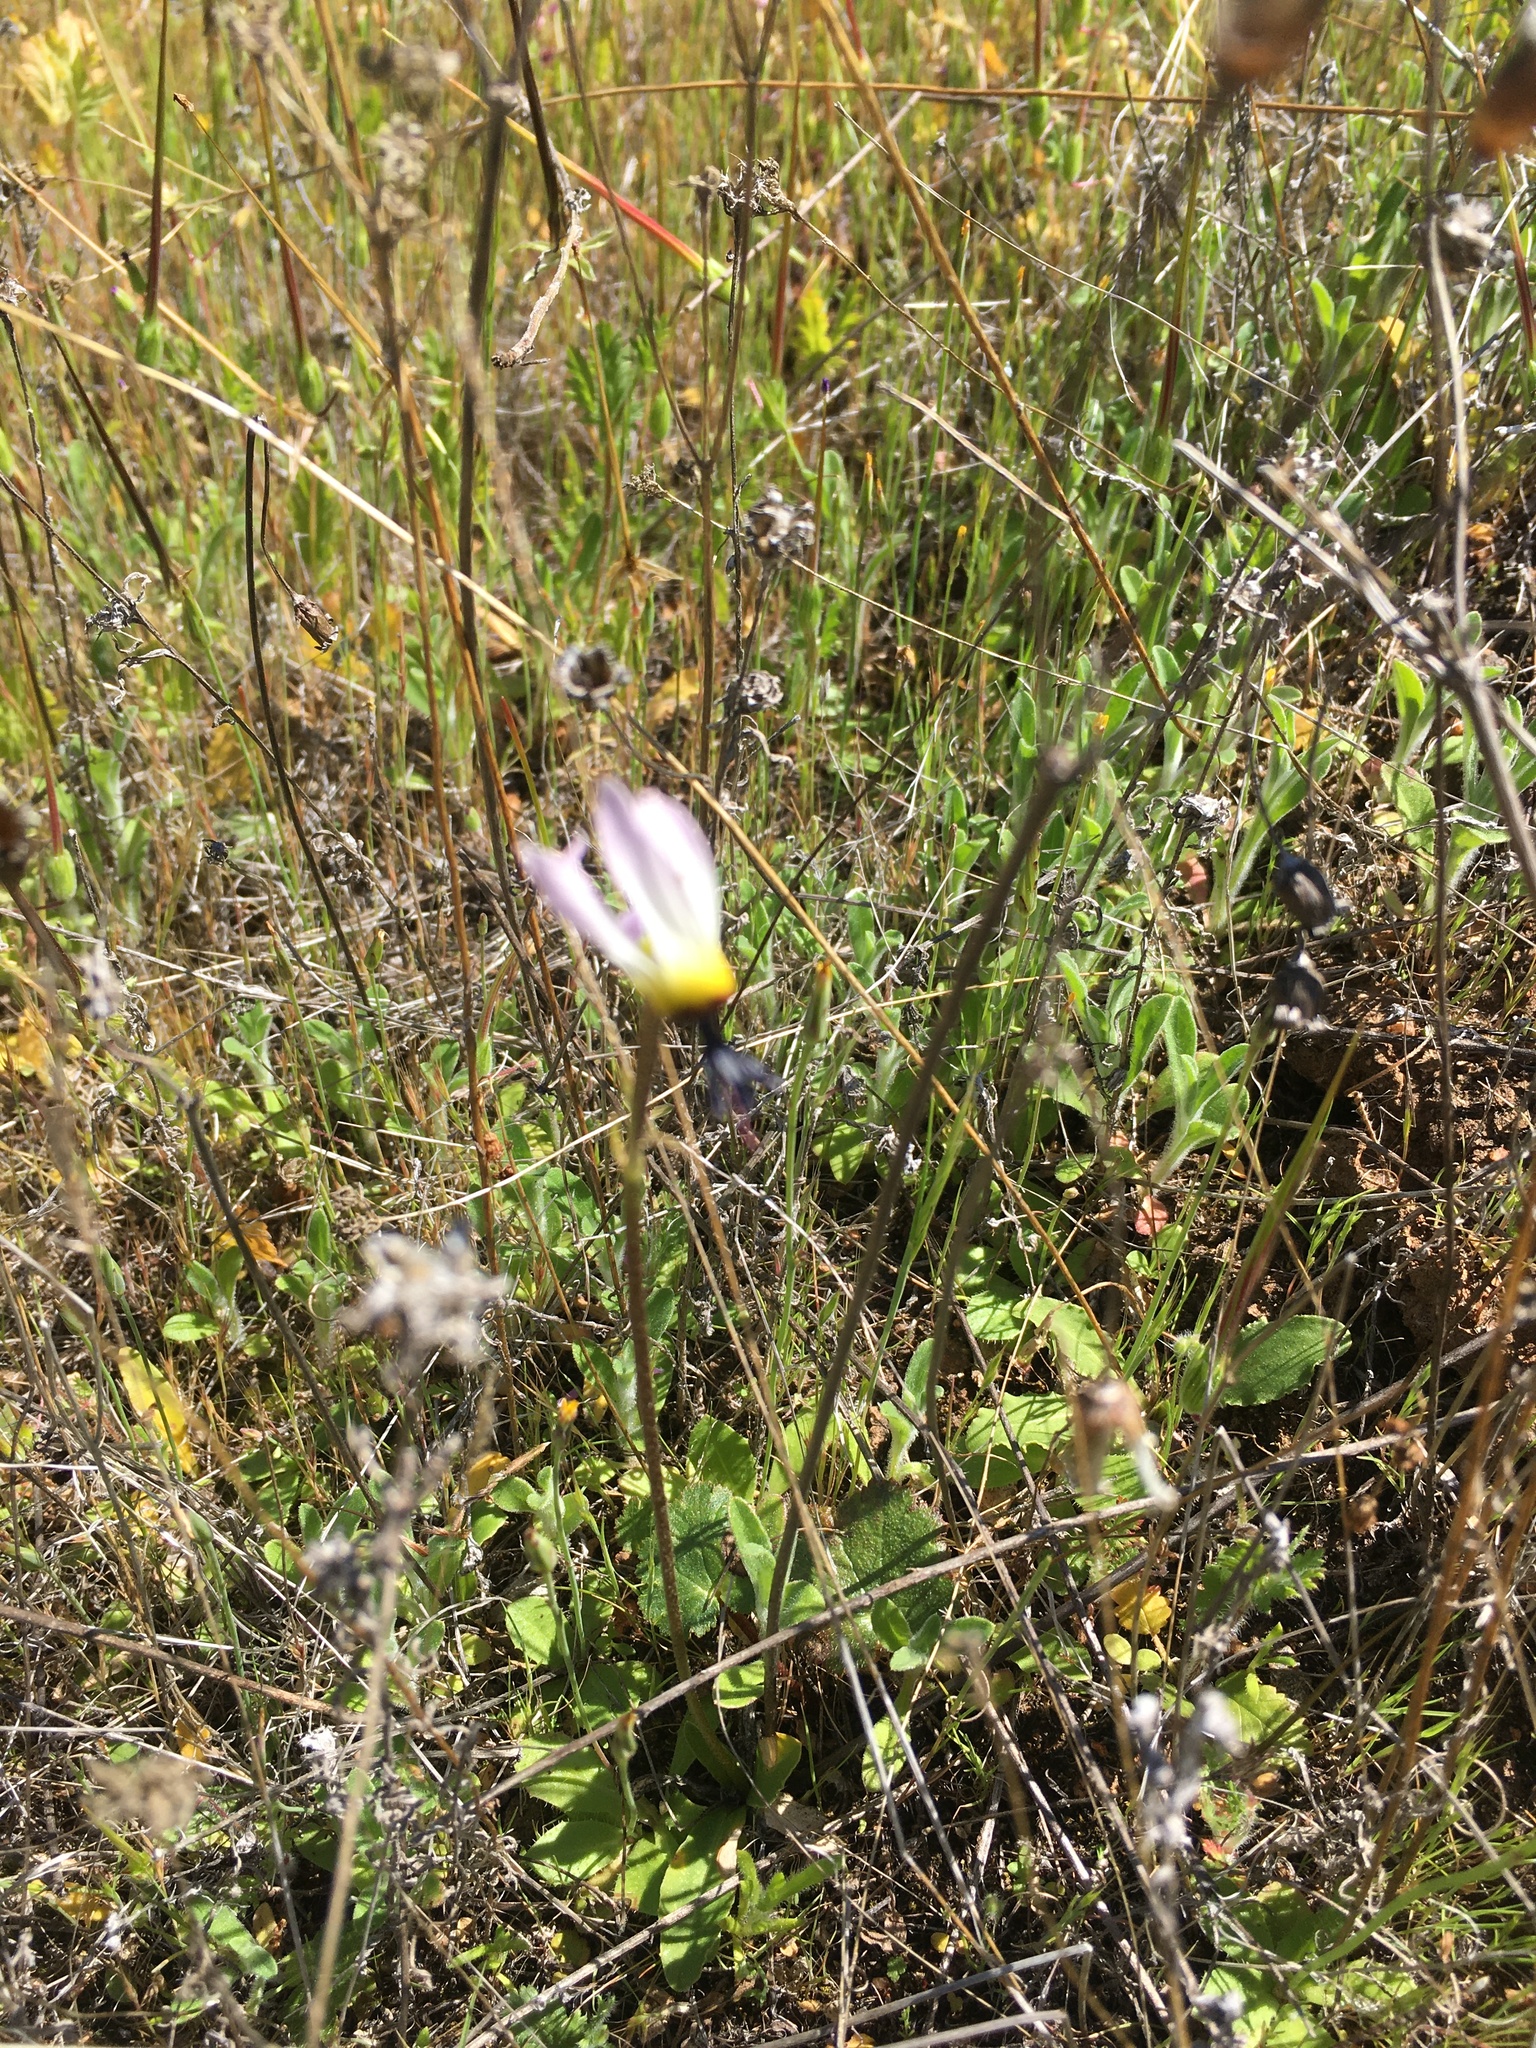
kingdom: Plantae
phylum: Tracheophyta
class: Magnoliopsida
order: Ericales
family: Primulaceae
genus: Dodecatheon
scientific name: Dodecatheon clevelandii
